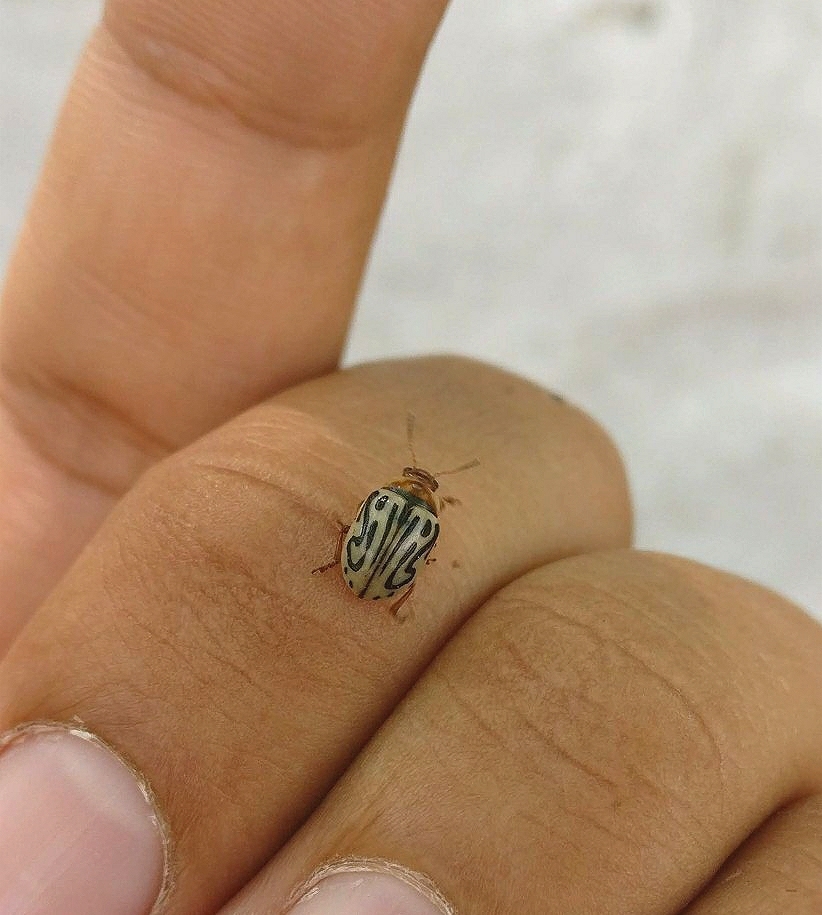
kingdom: Animalia
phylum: Arthropoda
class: Insecta
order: Coleoptera
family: Chrysomelidae
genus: Calligrapha
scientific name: Calligrapha
